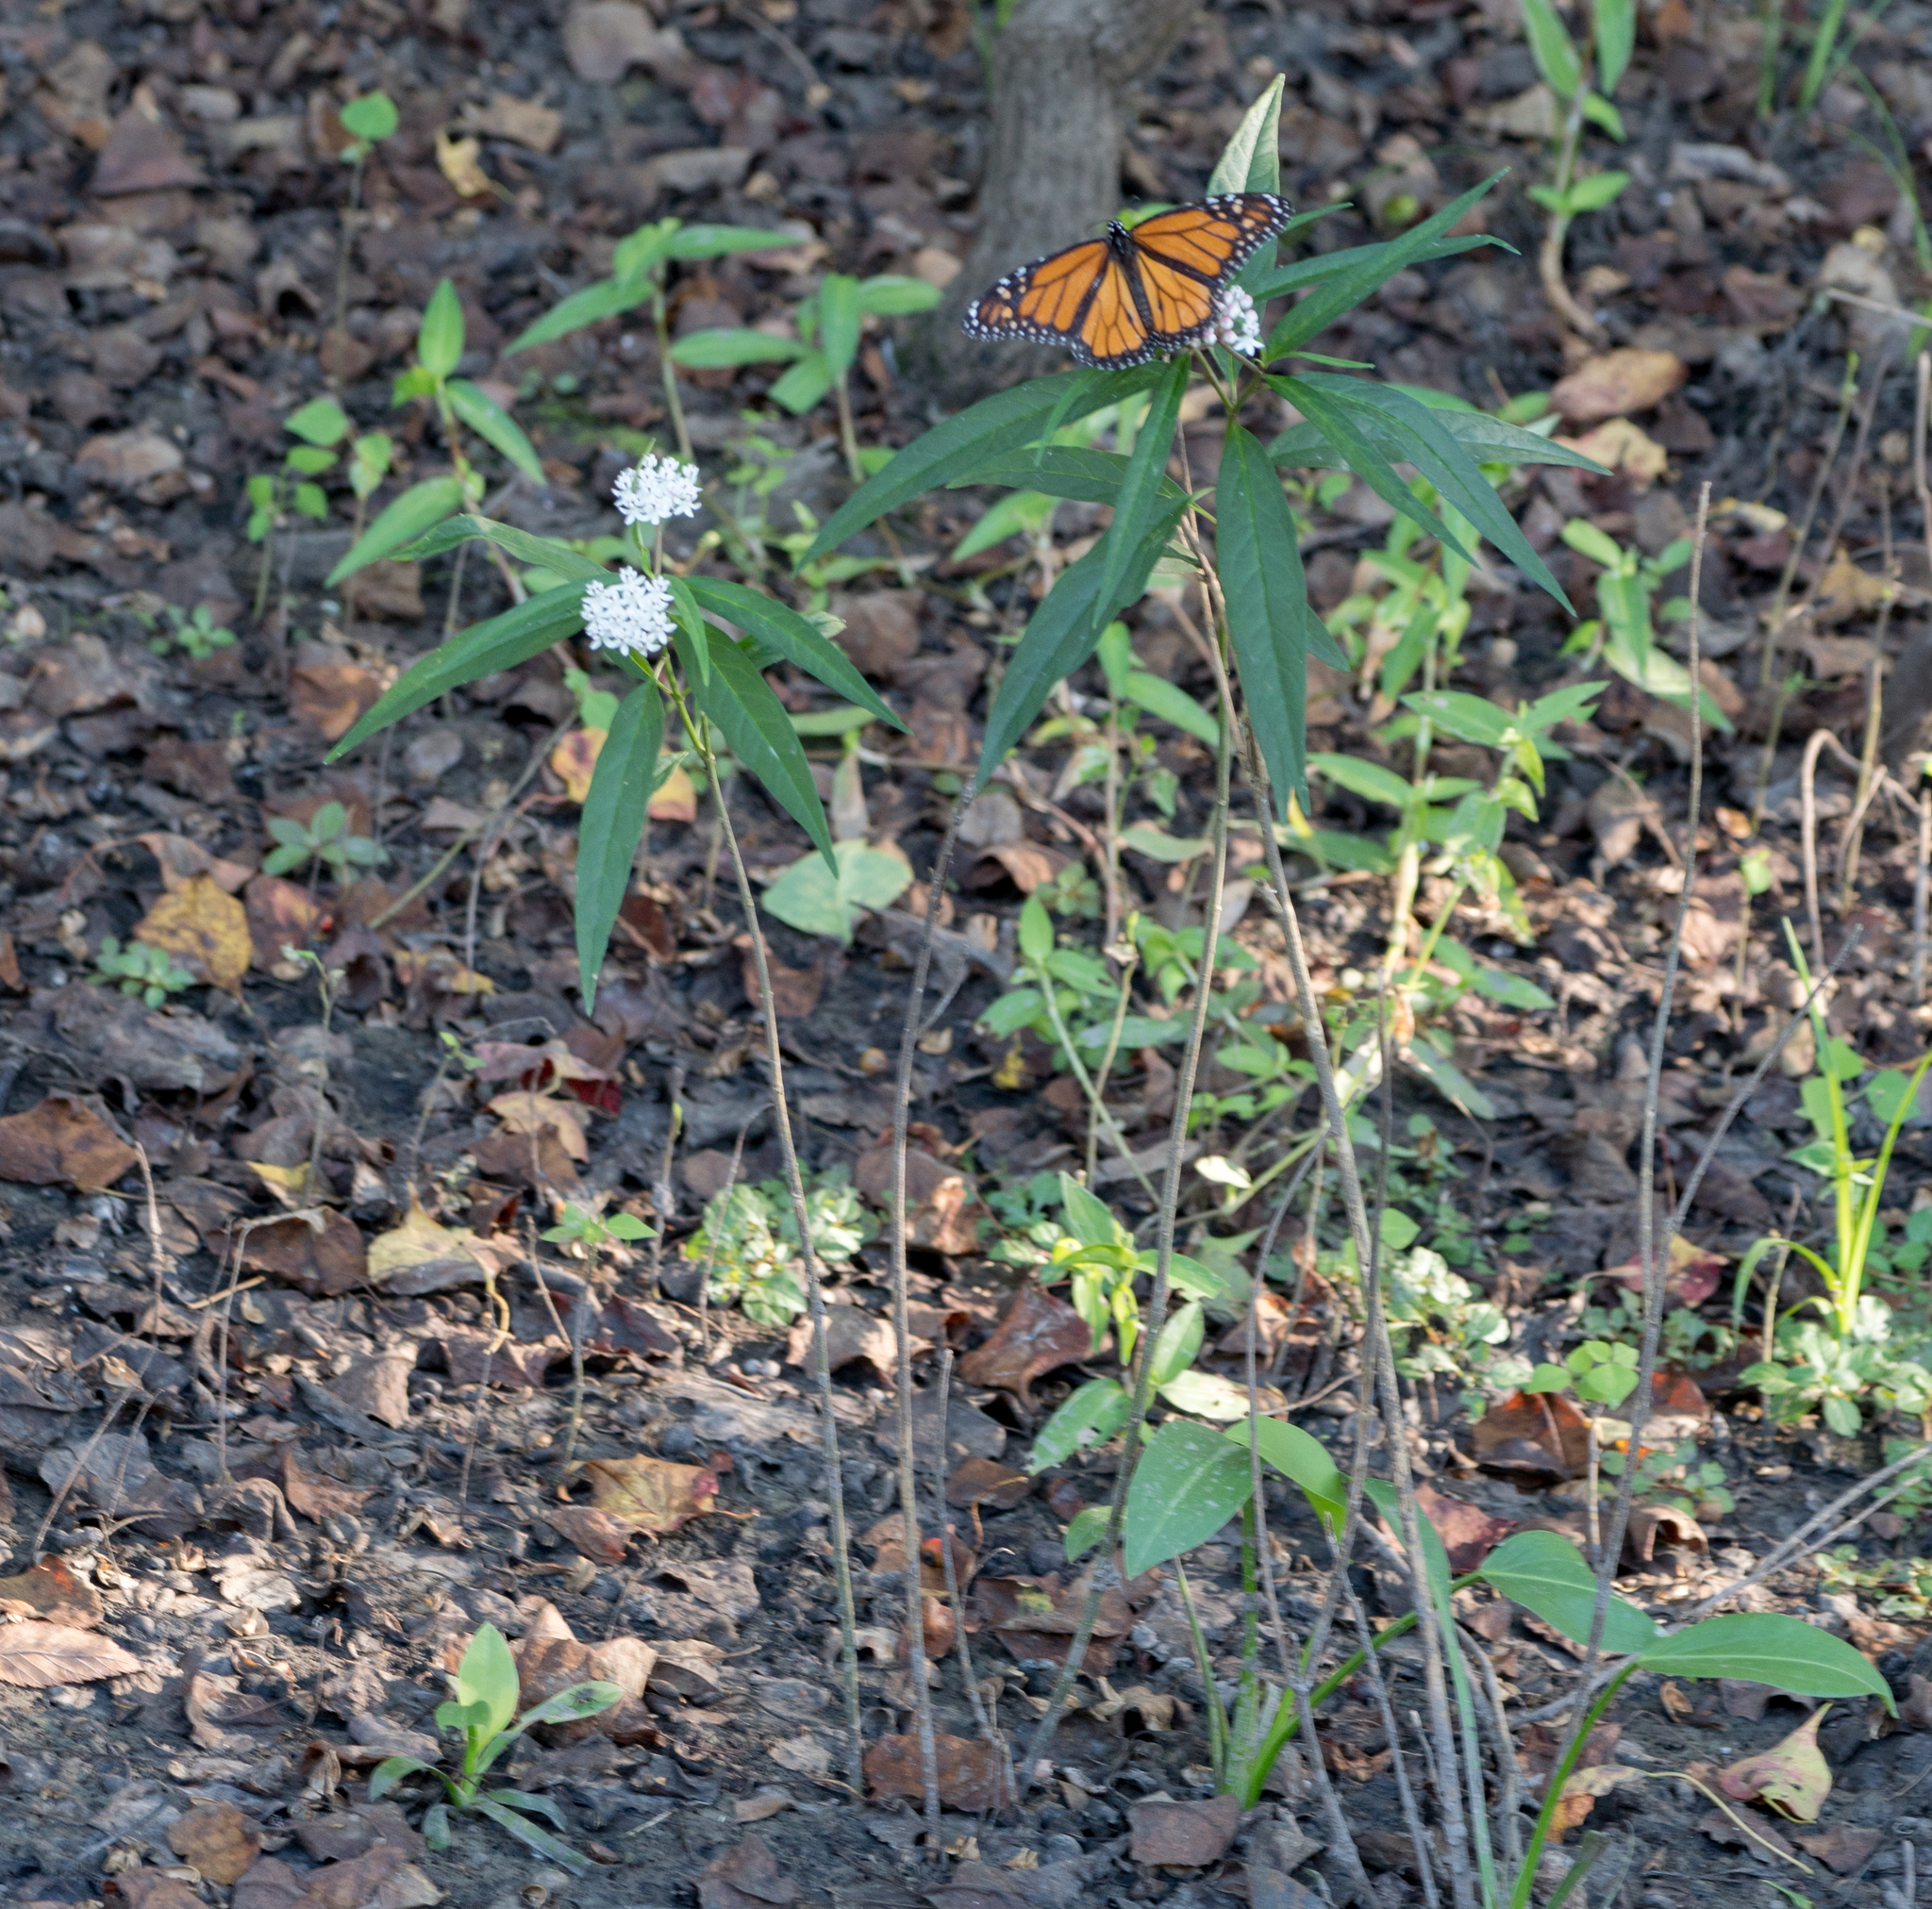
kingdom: Plantae
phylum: Tracheophyta
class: Magnoliopsida
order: Gentianales
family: Apocynaceae
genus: Asclepias
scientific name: Asclepias perennis
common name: Smooth-seed milkweed
